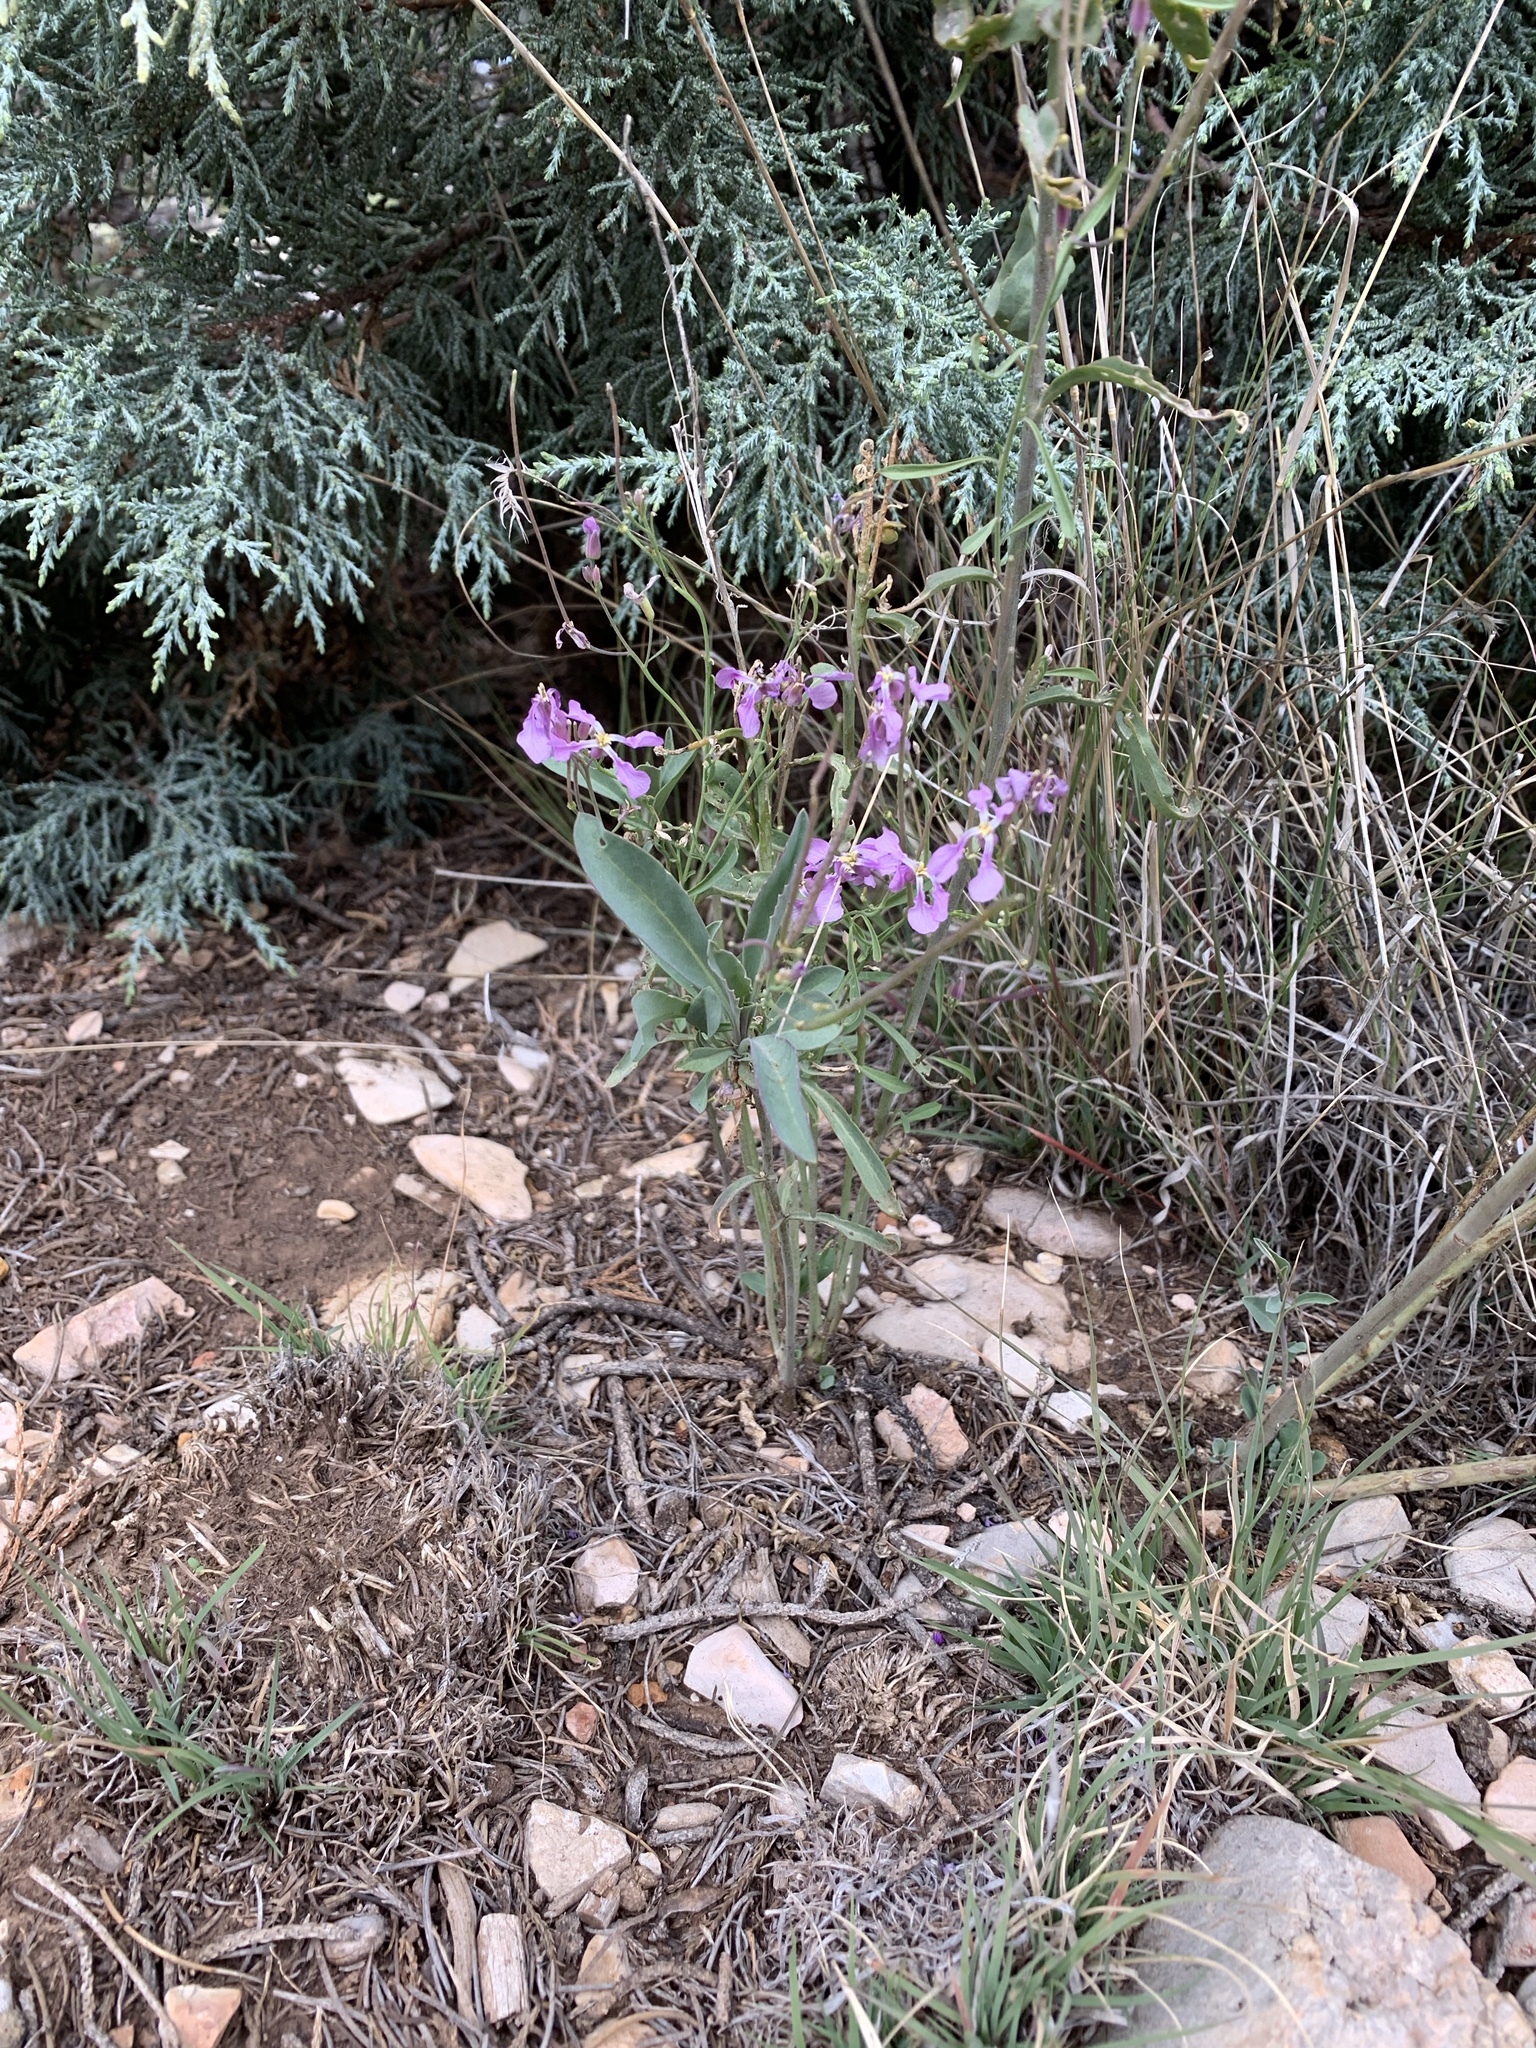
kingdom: Plantae
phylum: Tracheophyta
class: Magnoliopsida
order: Brassicales
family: Brassicaceae
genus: Hesperidanthus
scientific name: Hesperidanthus linearifolius
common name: Slim-leaf plains mustard
